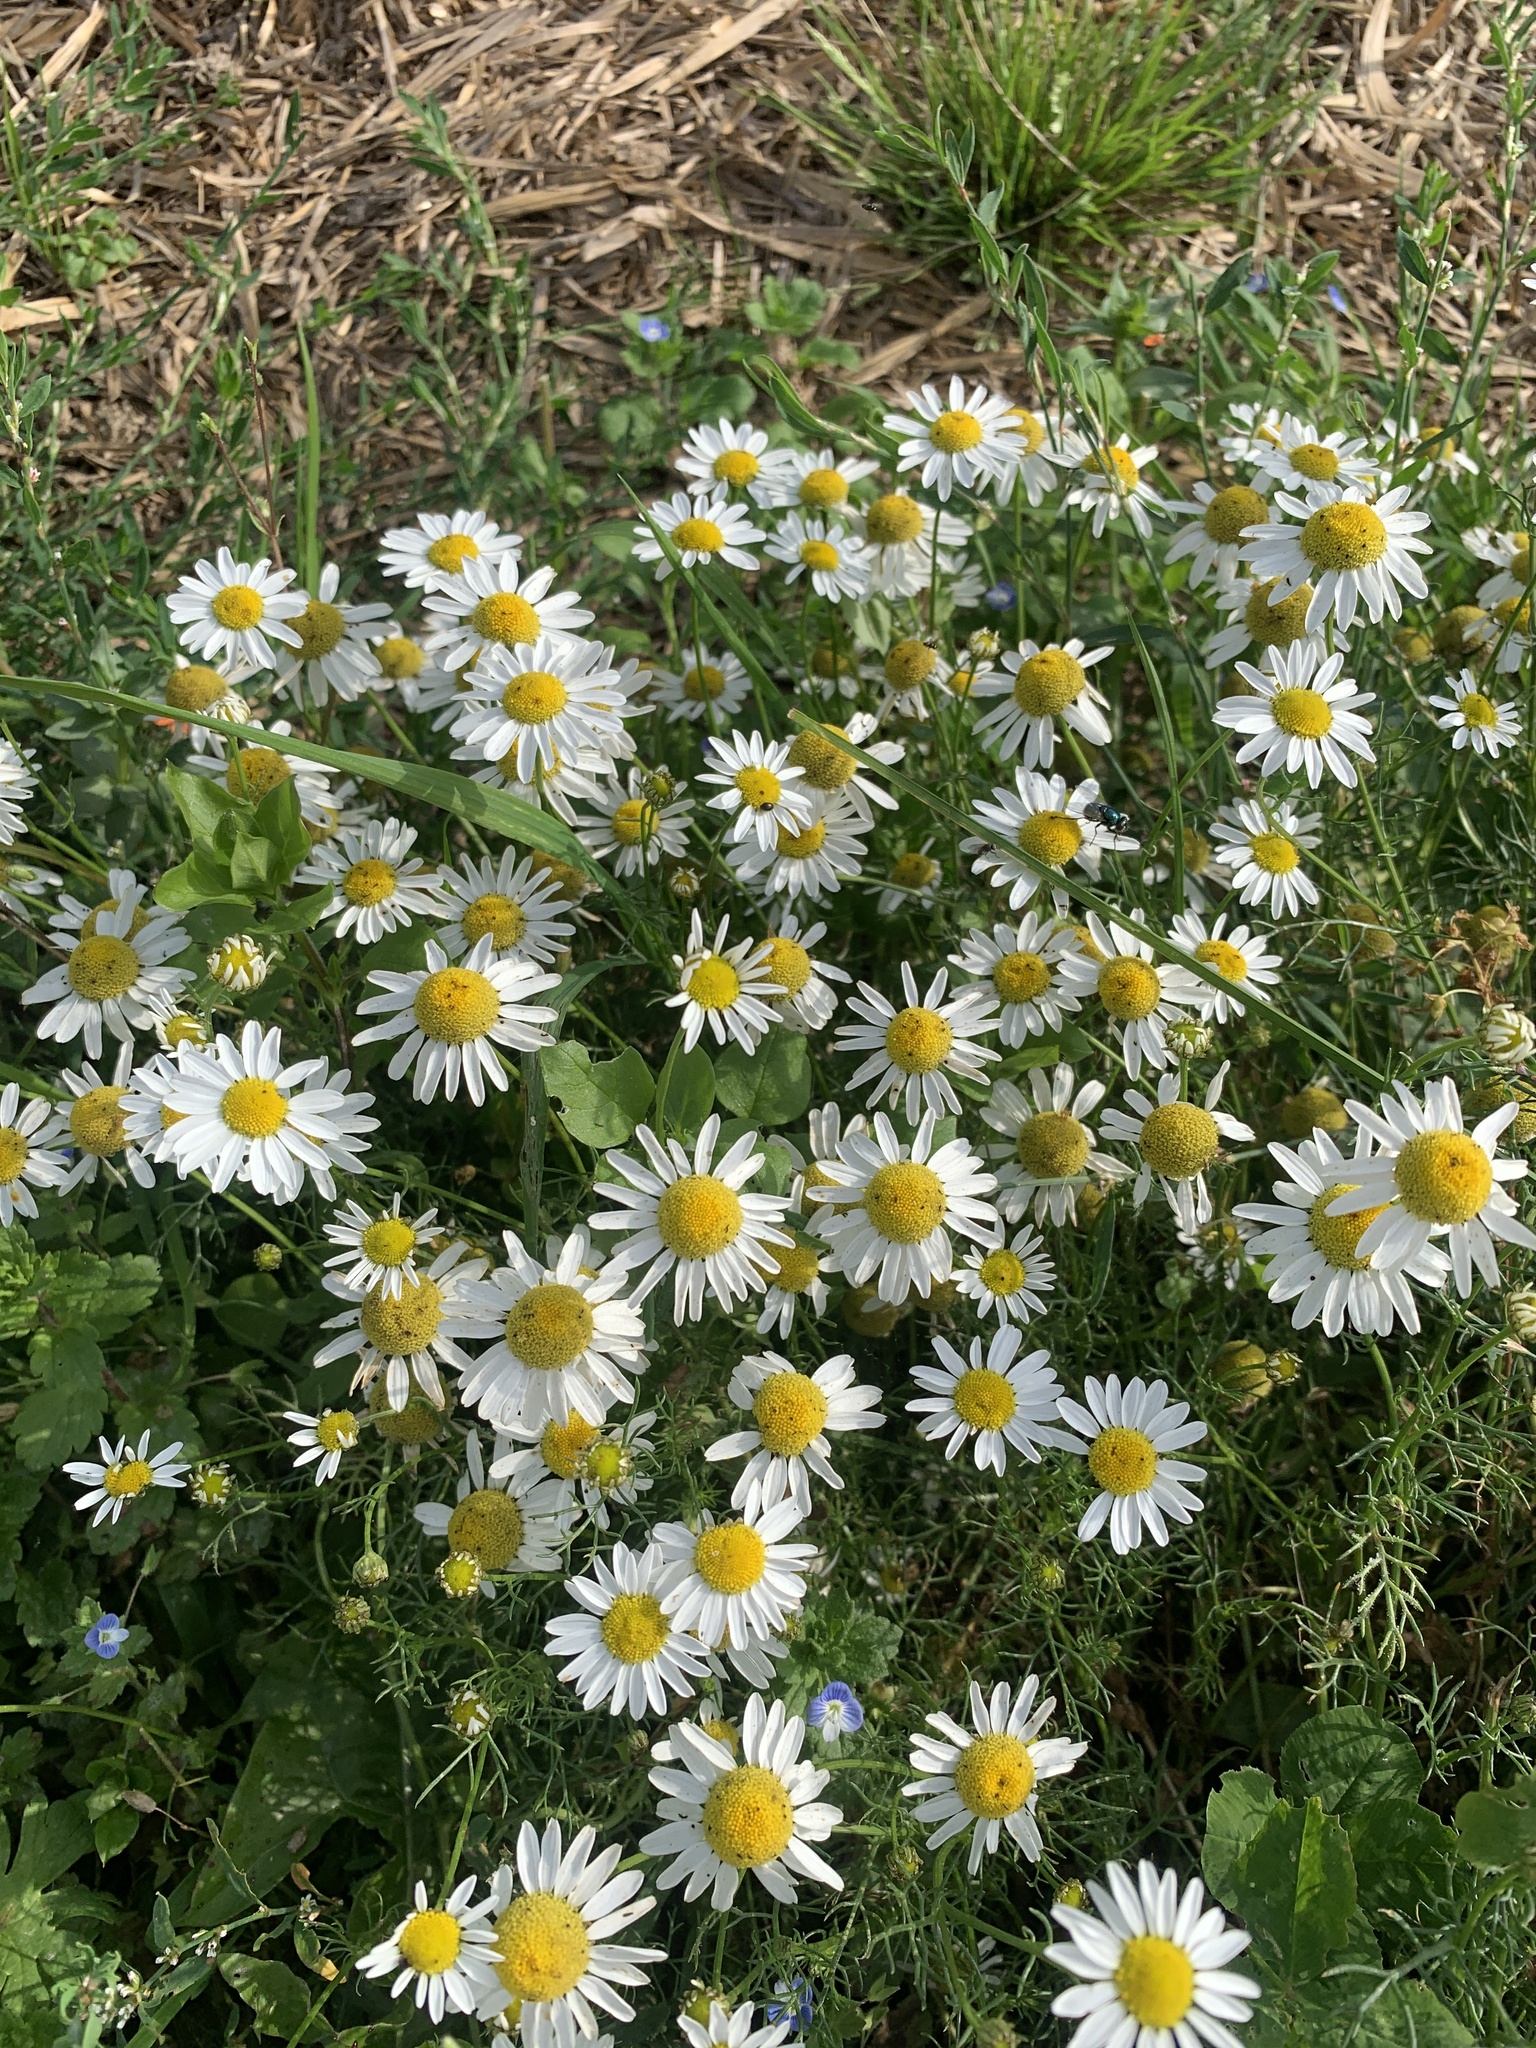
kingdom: Plantae
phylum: Tracheophyta
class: Magnoliopsida
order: Asterales
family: Asteraceae
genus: Tripleurospermum
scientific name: Tripleurospermum inodorum
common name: Scentless mayweed
